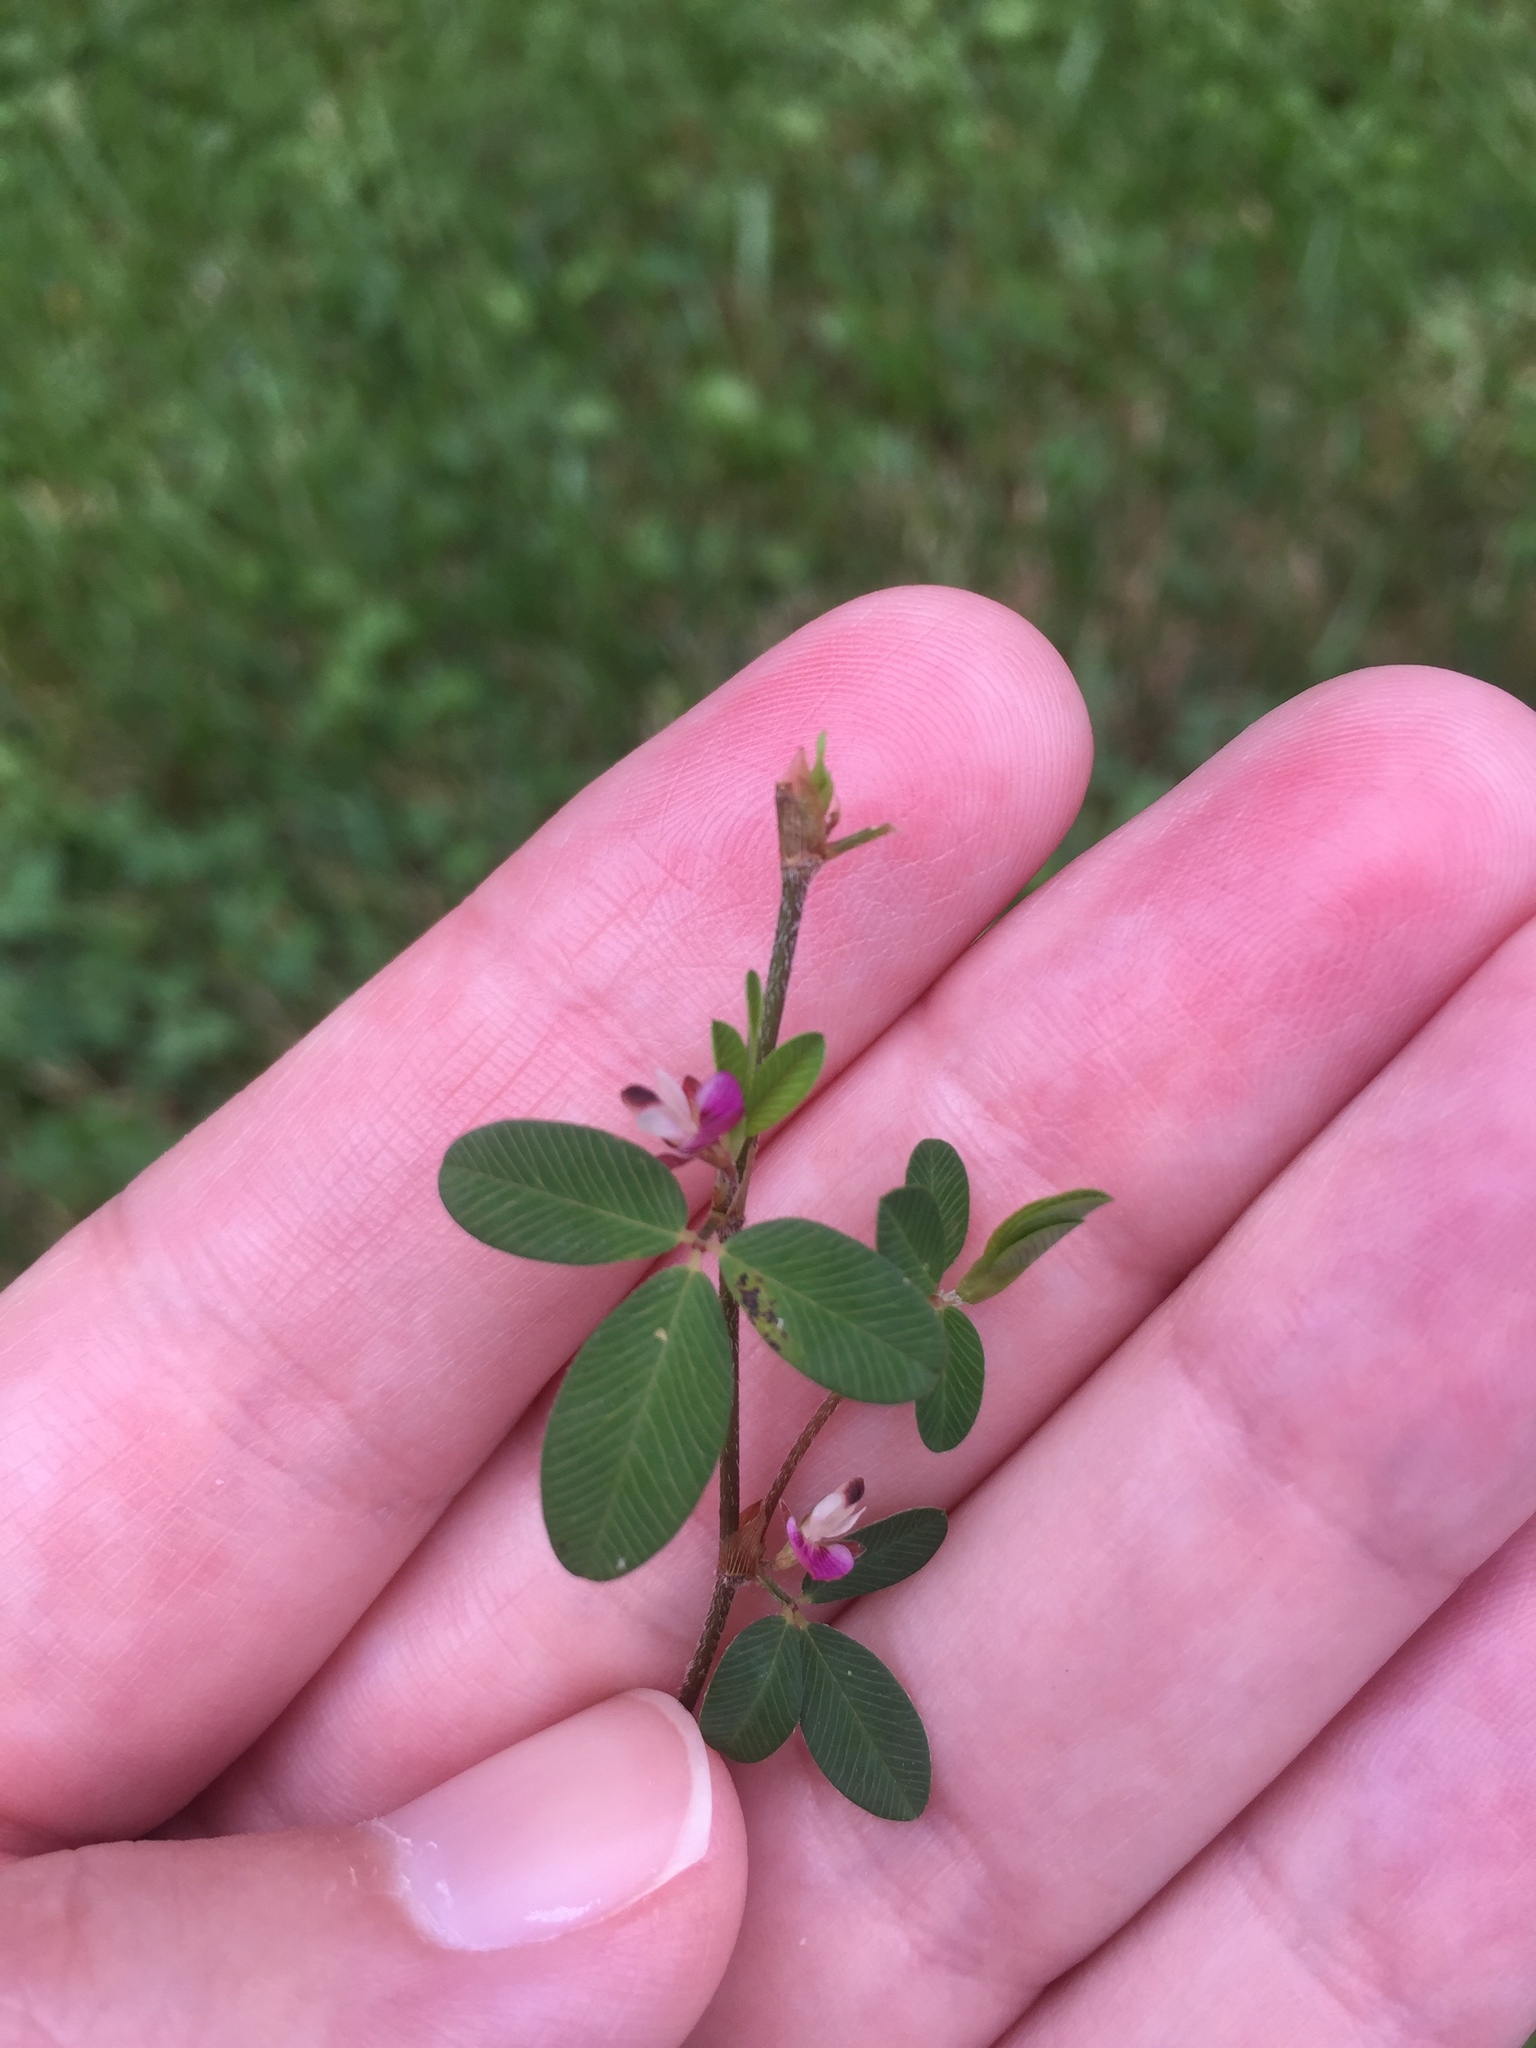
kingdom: Plantae
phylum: Tracheophyta
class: Magnoliopsida
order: Fabales
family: Fabaceae
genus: Kummerowia
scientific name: Kummerowia striata
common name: Japanese clover
